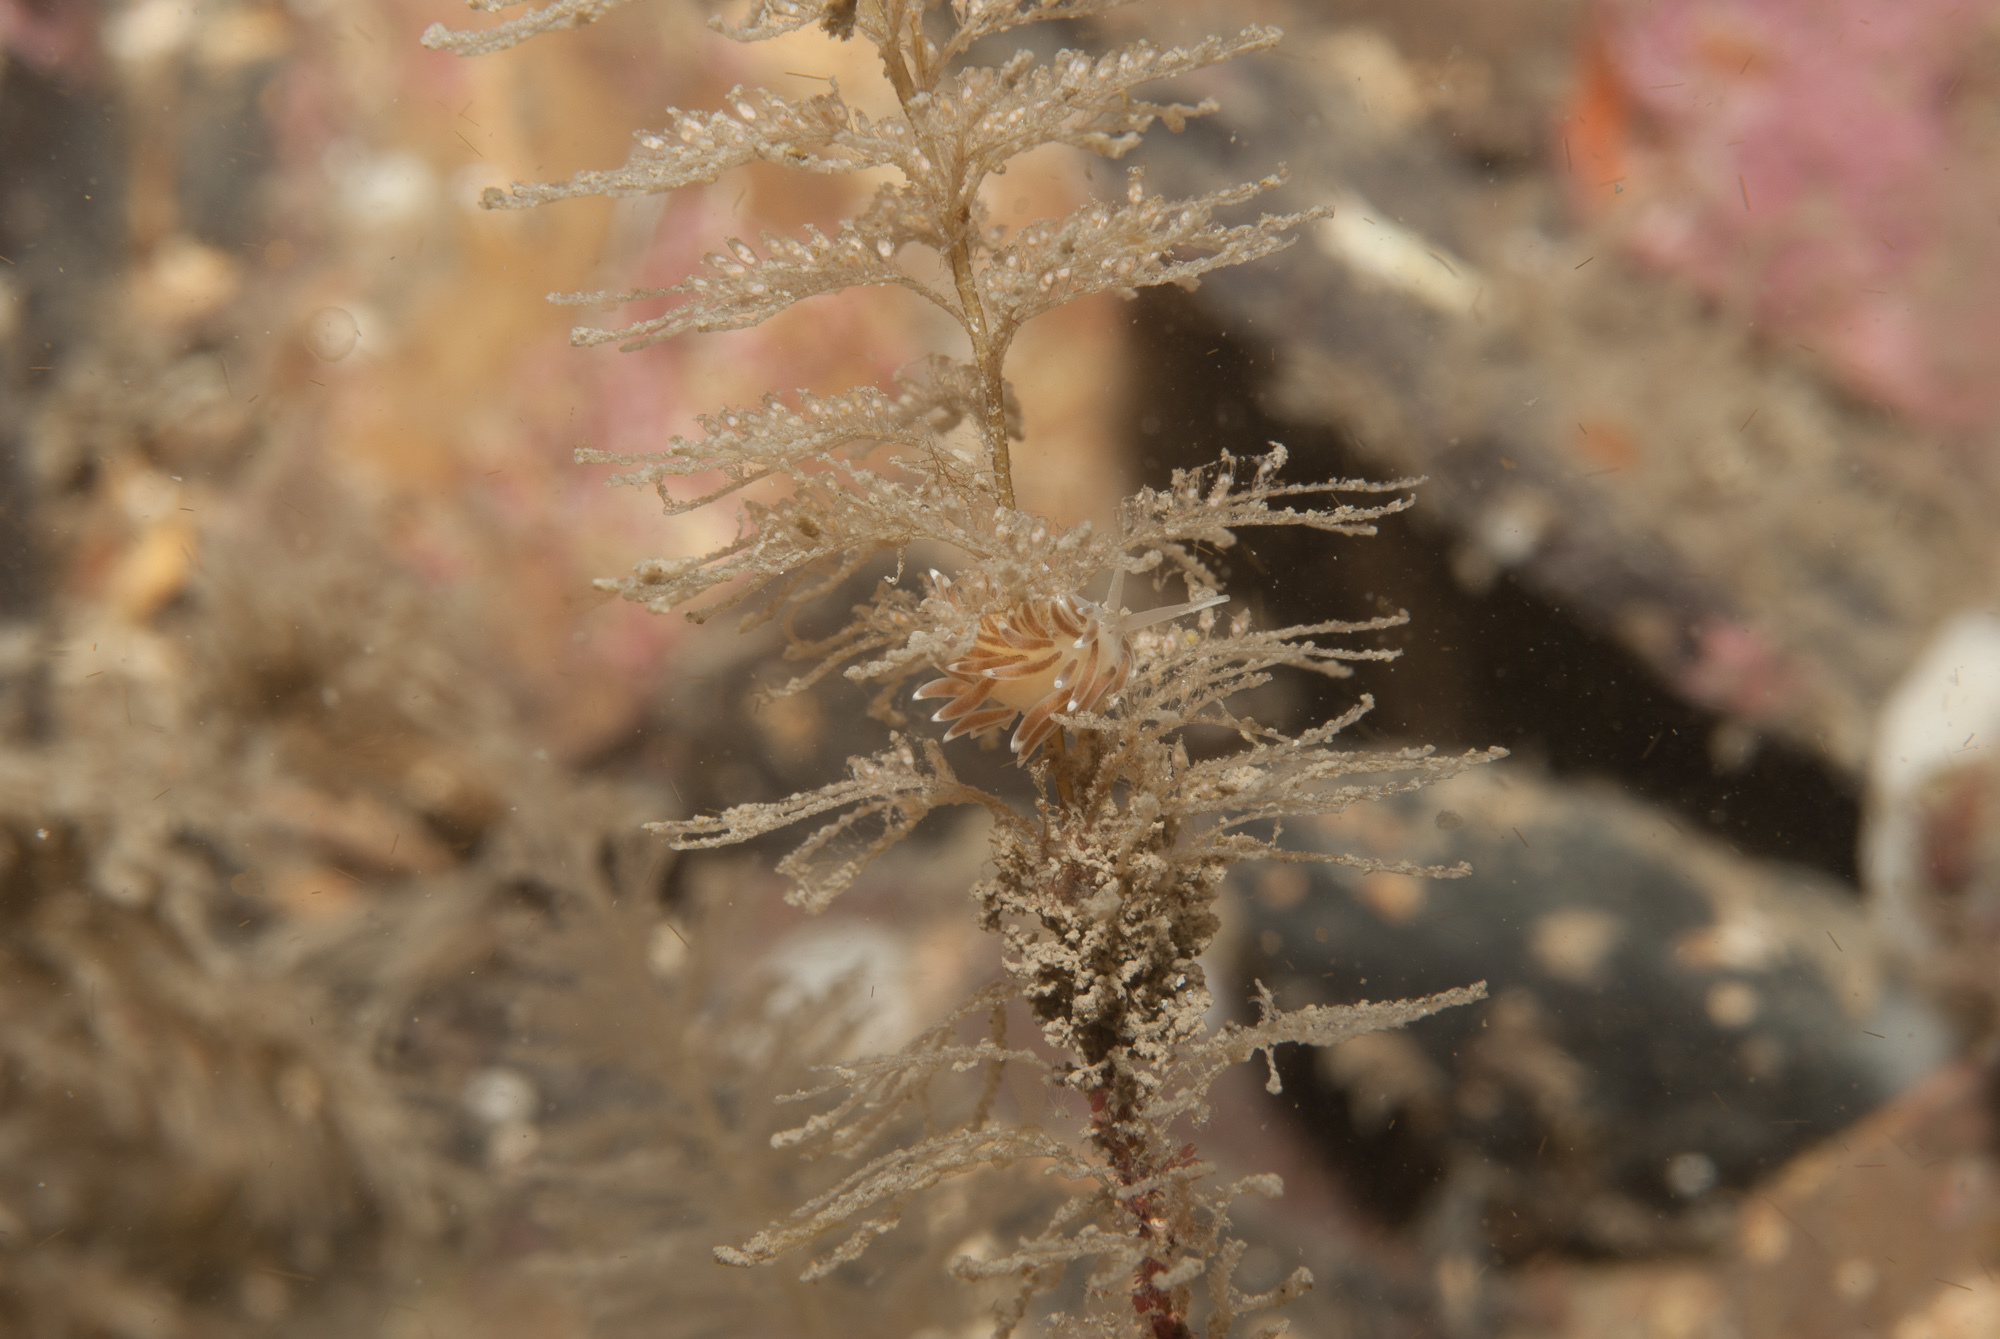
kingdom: Animalia
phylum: Mollusca
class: Gastropoda
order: Nudibranchia
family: Cuthonellidae
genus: Cuthonella
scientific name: Cuthonella concinna
